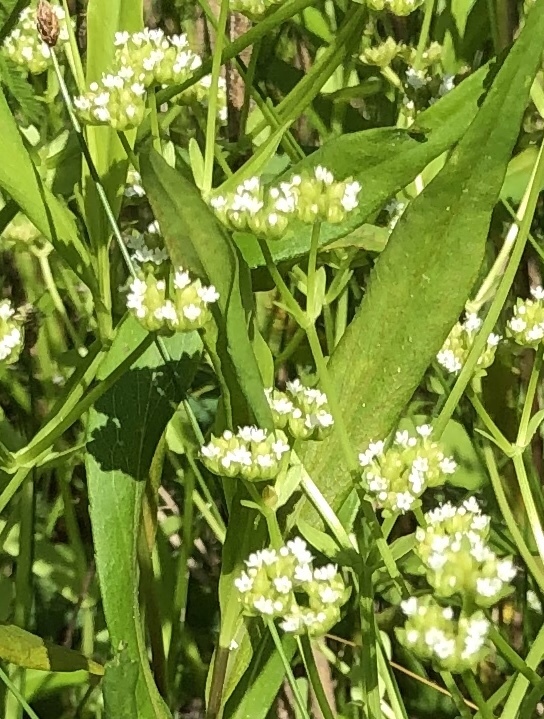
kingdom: Plantae
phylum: Tracheophyta
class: Magnoliopsida
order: Dipsacales
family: Caprifoliaceae
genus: Valerianella
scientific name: Valerianella radiata
